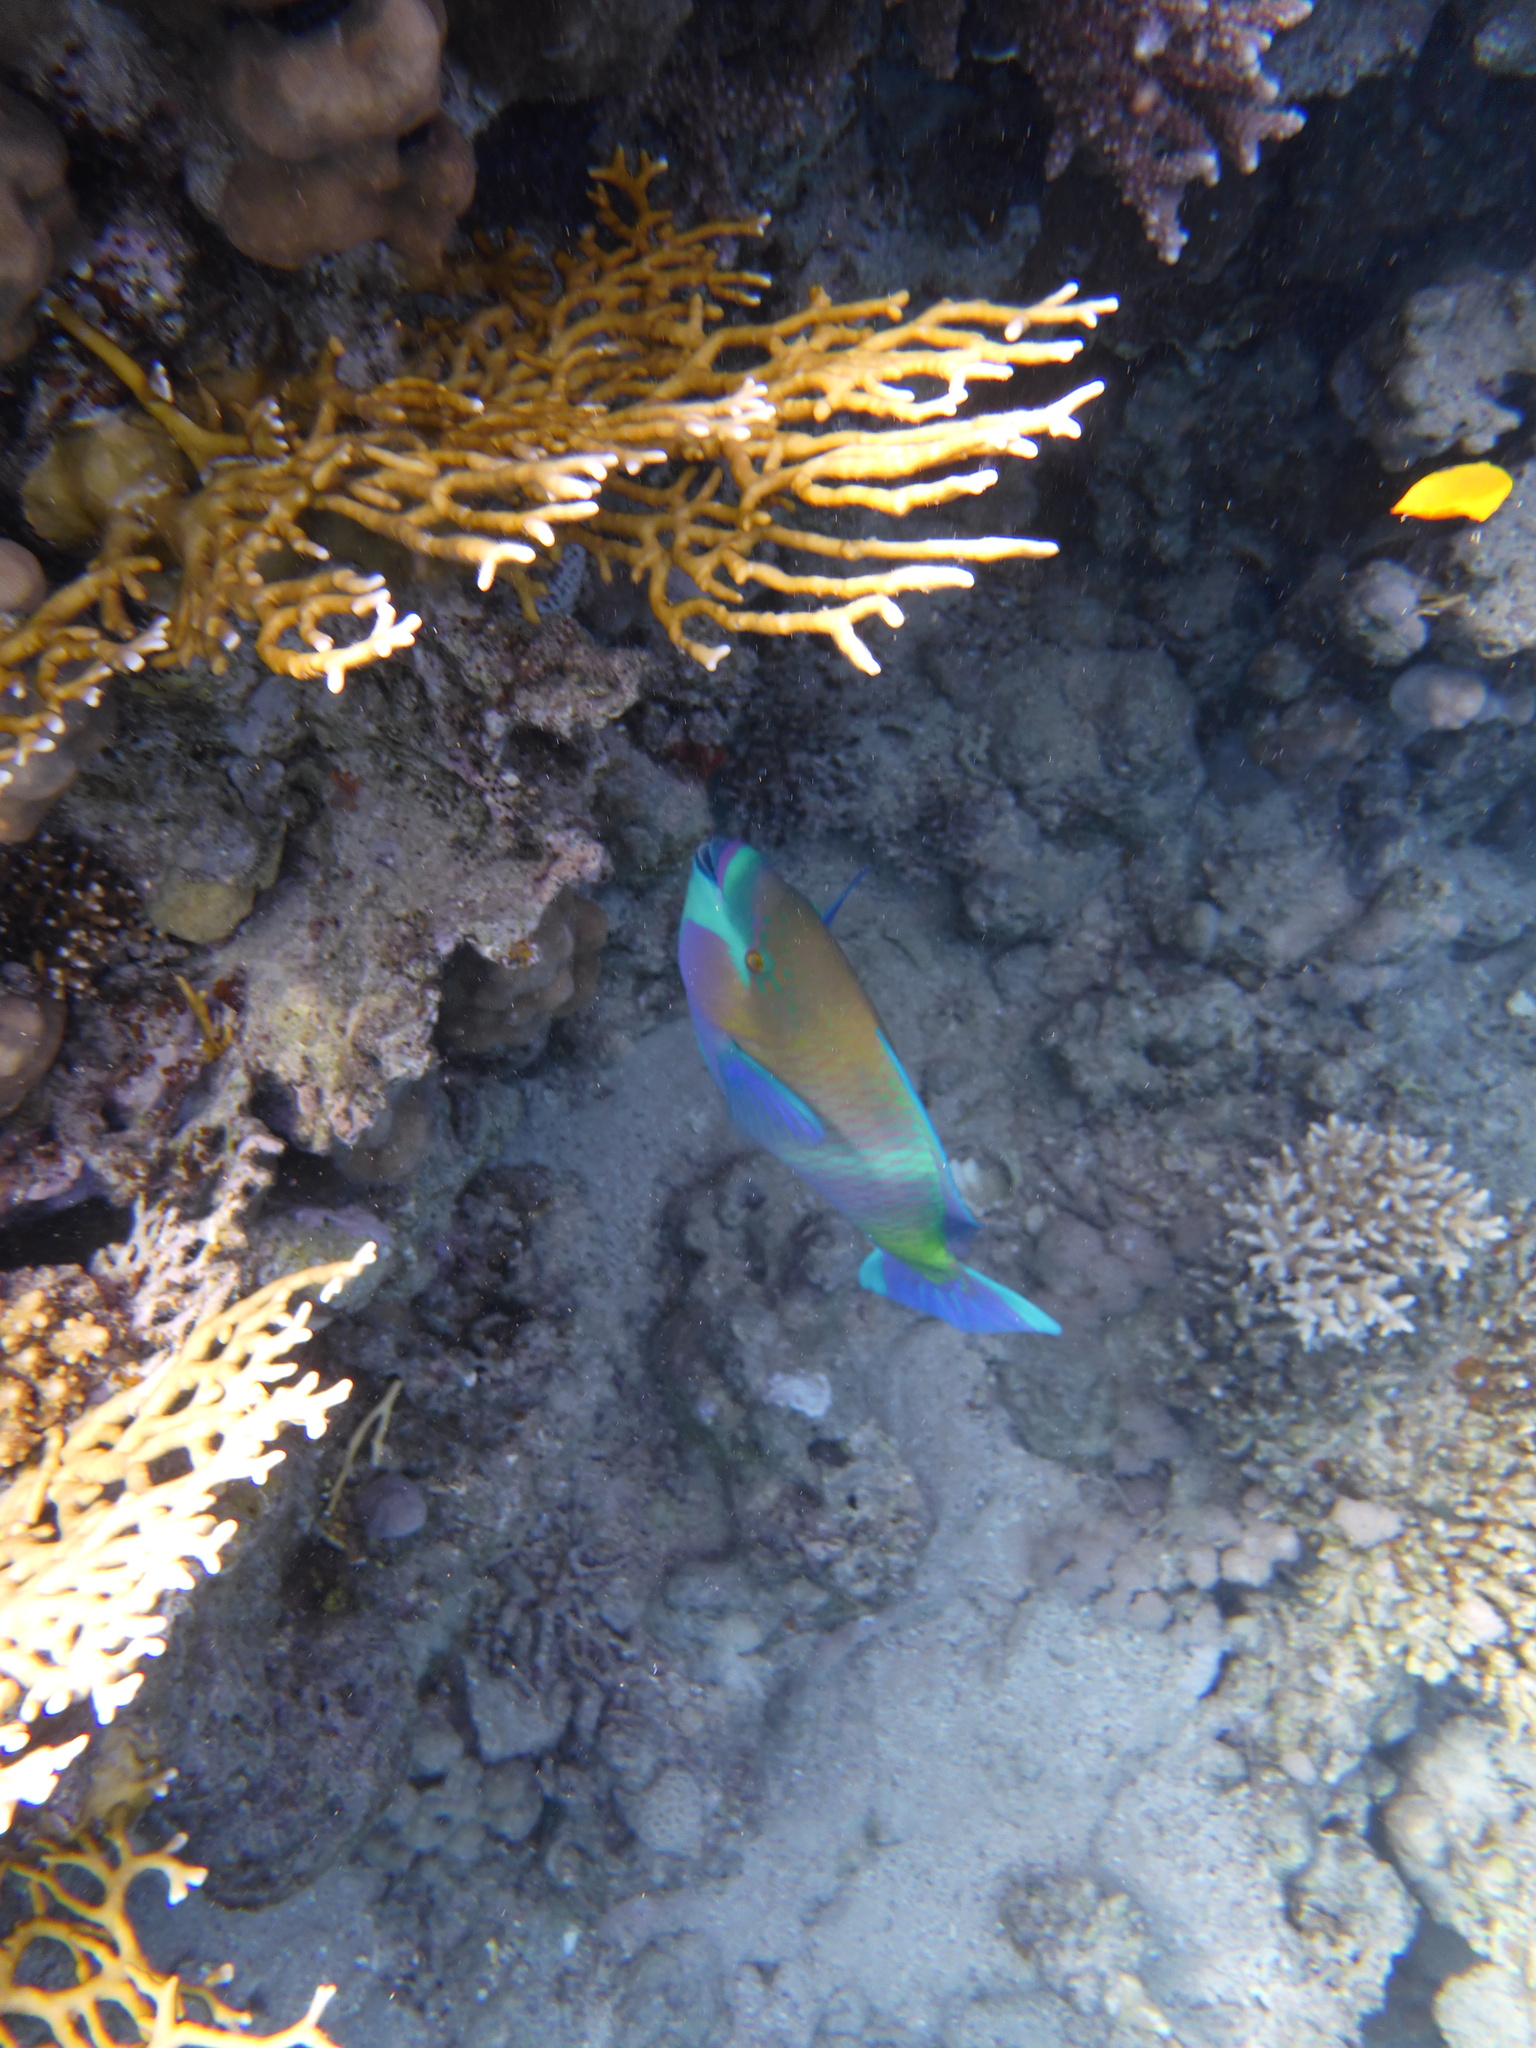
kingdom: Animalia
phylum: Chordata
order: Perciformes
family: Scaridae
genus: Scarus
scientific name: Scarus ferrugineus
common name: Rusty parrotfish
